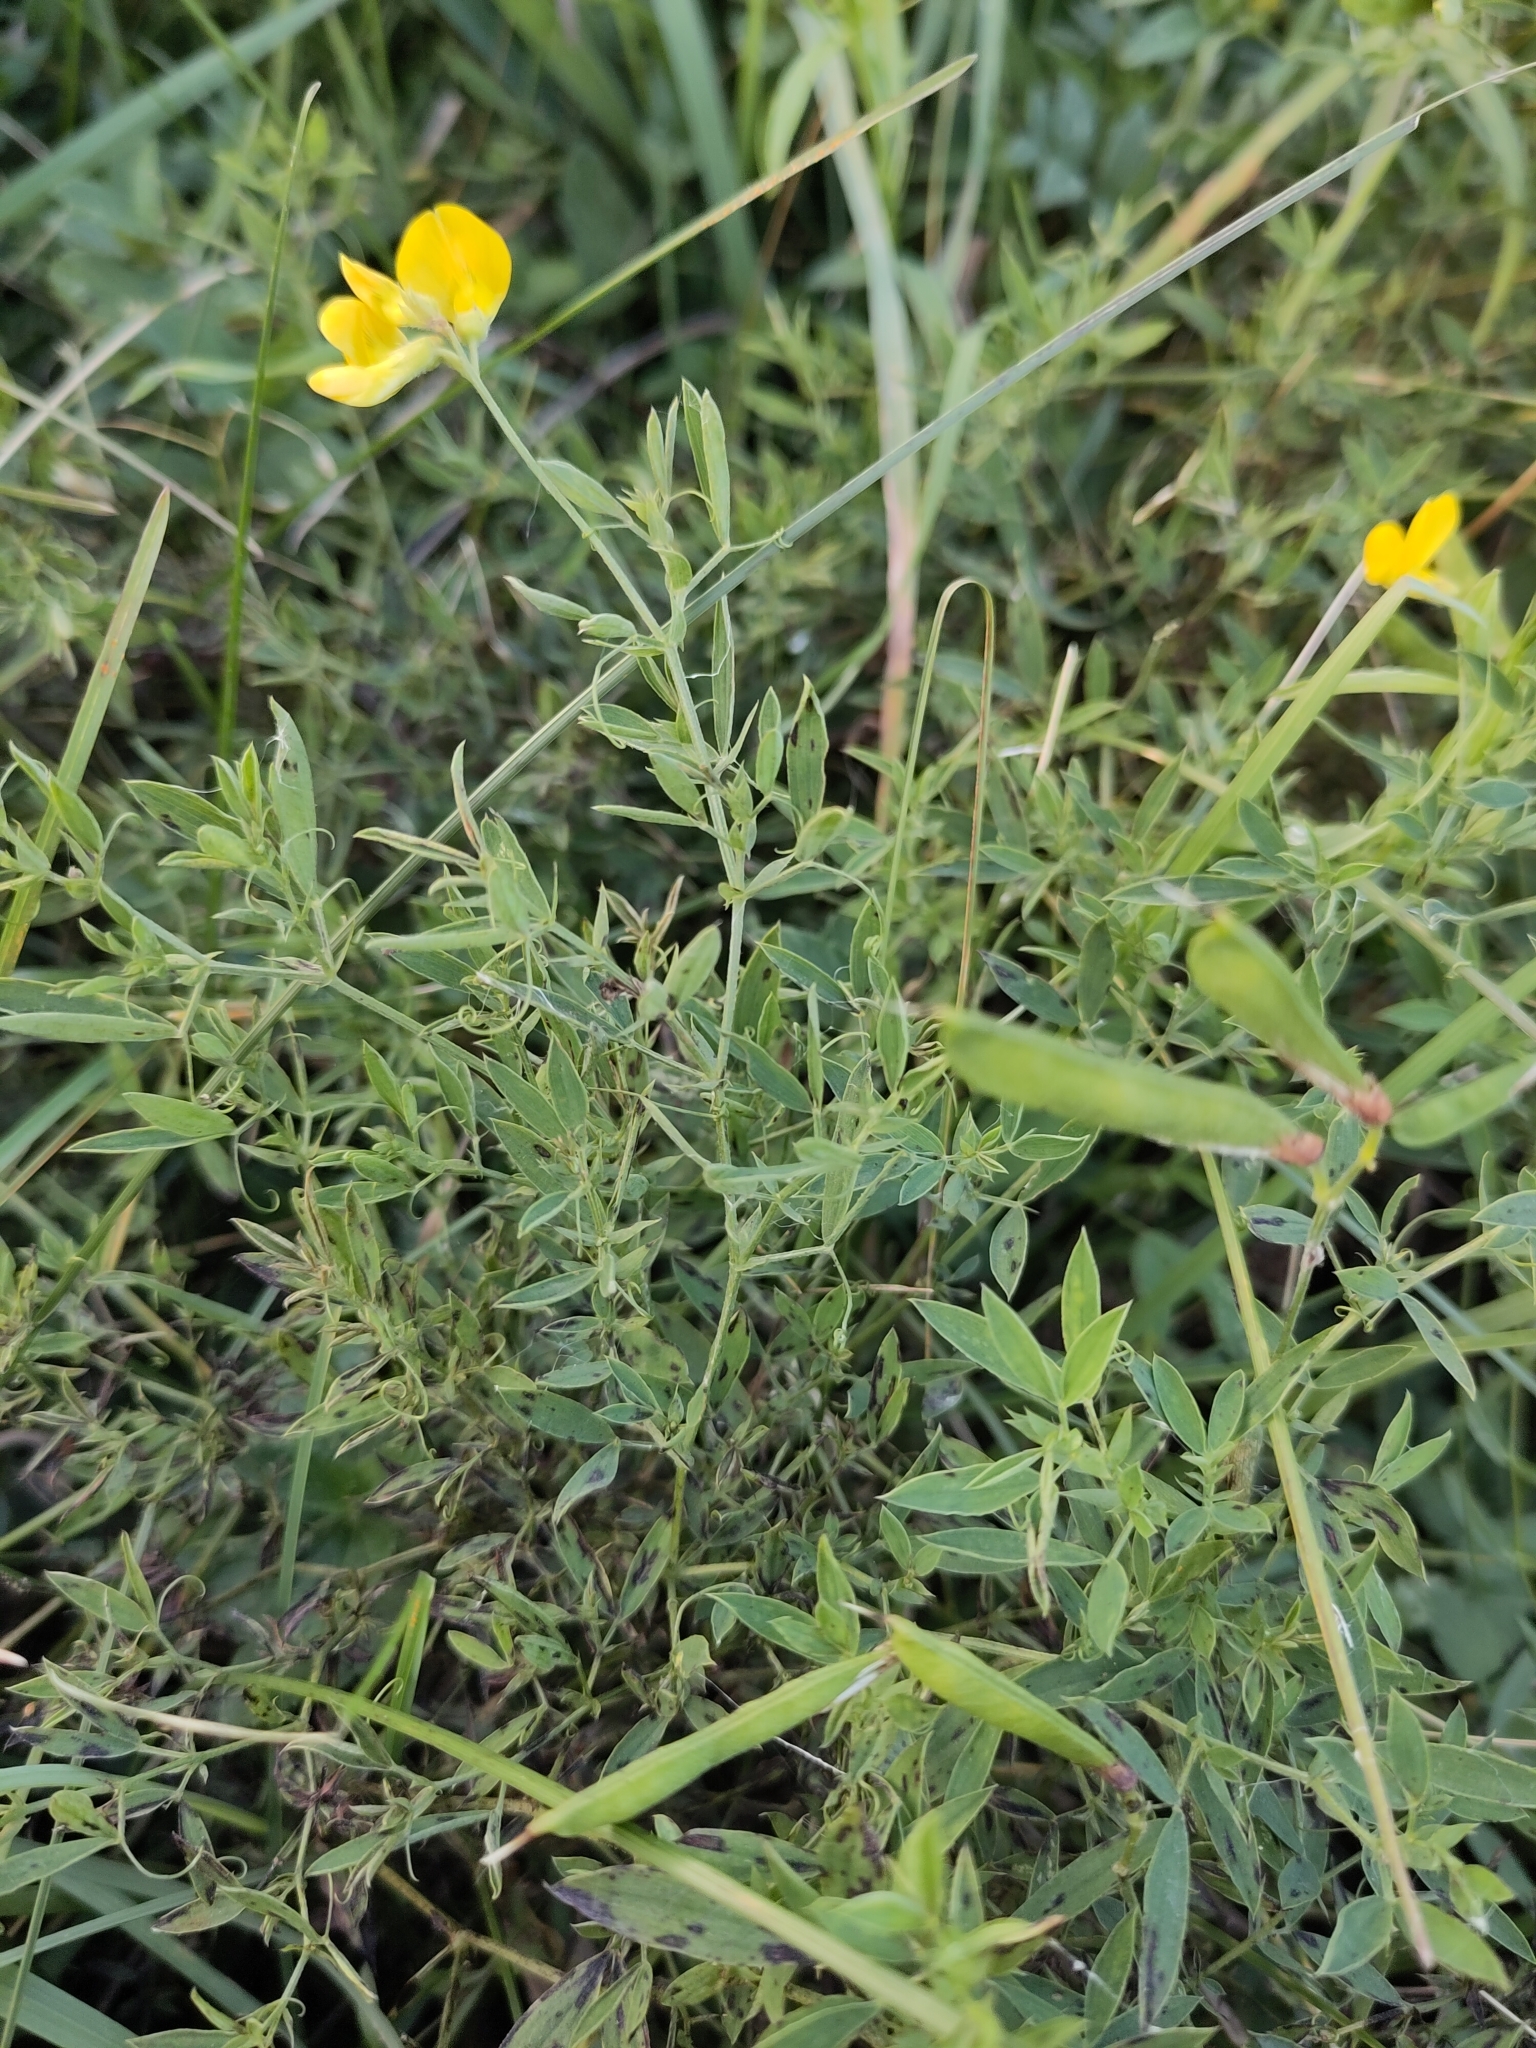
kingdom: Plantae
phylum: Tracheophyta
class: Magnoliopsida
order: Fabales
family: Fabaceae
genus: Lathyrus
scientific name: Lathyrus pratensis
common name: Meadow vetchling
